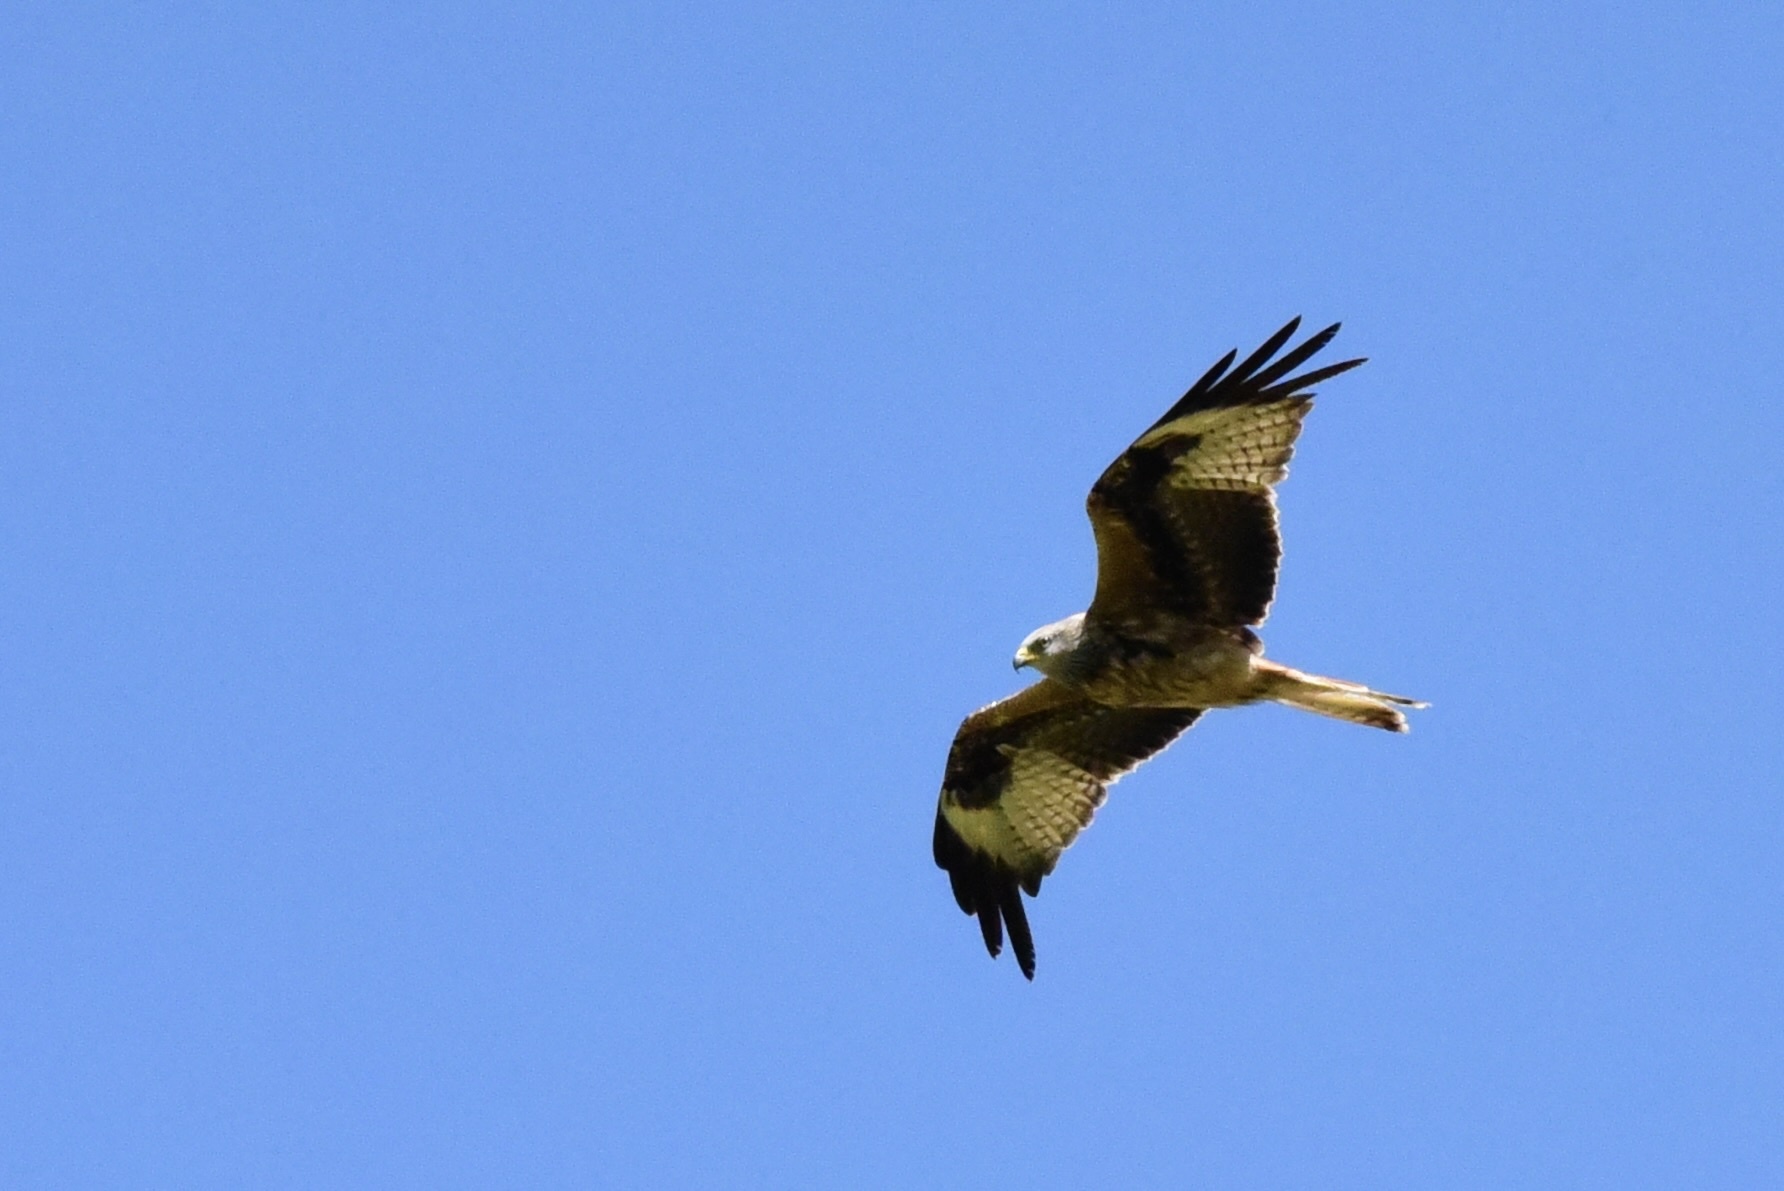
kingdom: Animalia
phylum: Chordata
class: Aves
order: Accipitriformes
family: Accipitridae
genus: Milvus
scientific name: Milvus milvus
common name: Red kite
